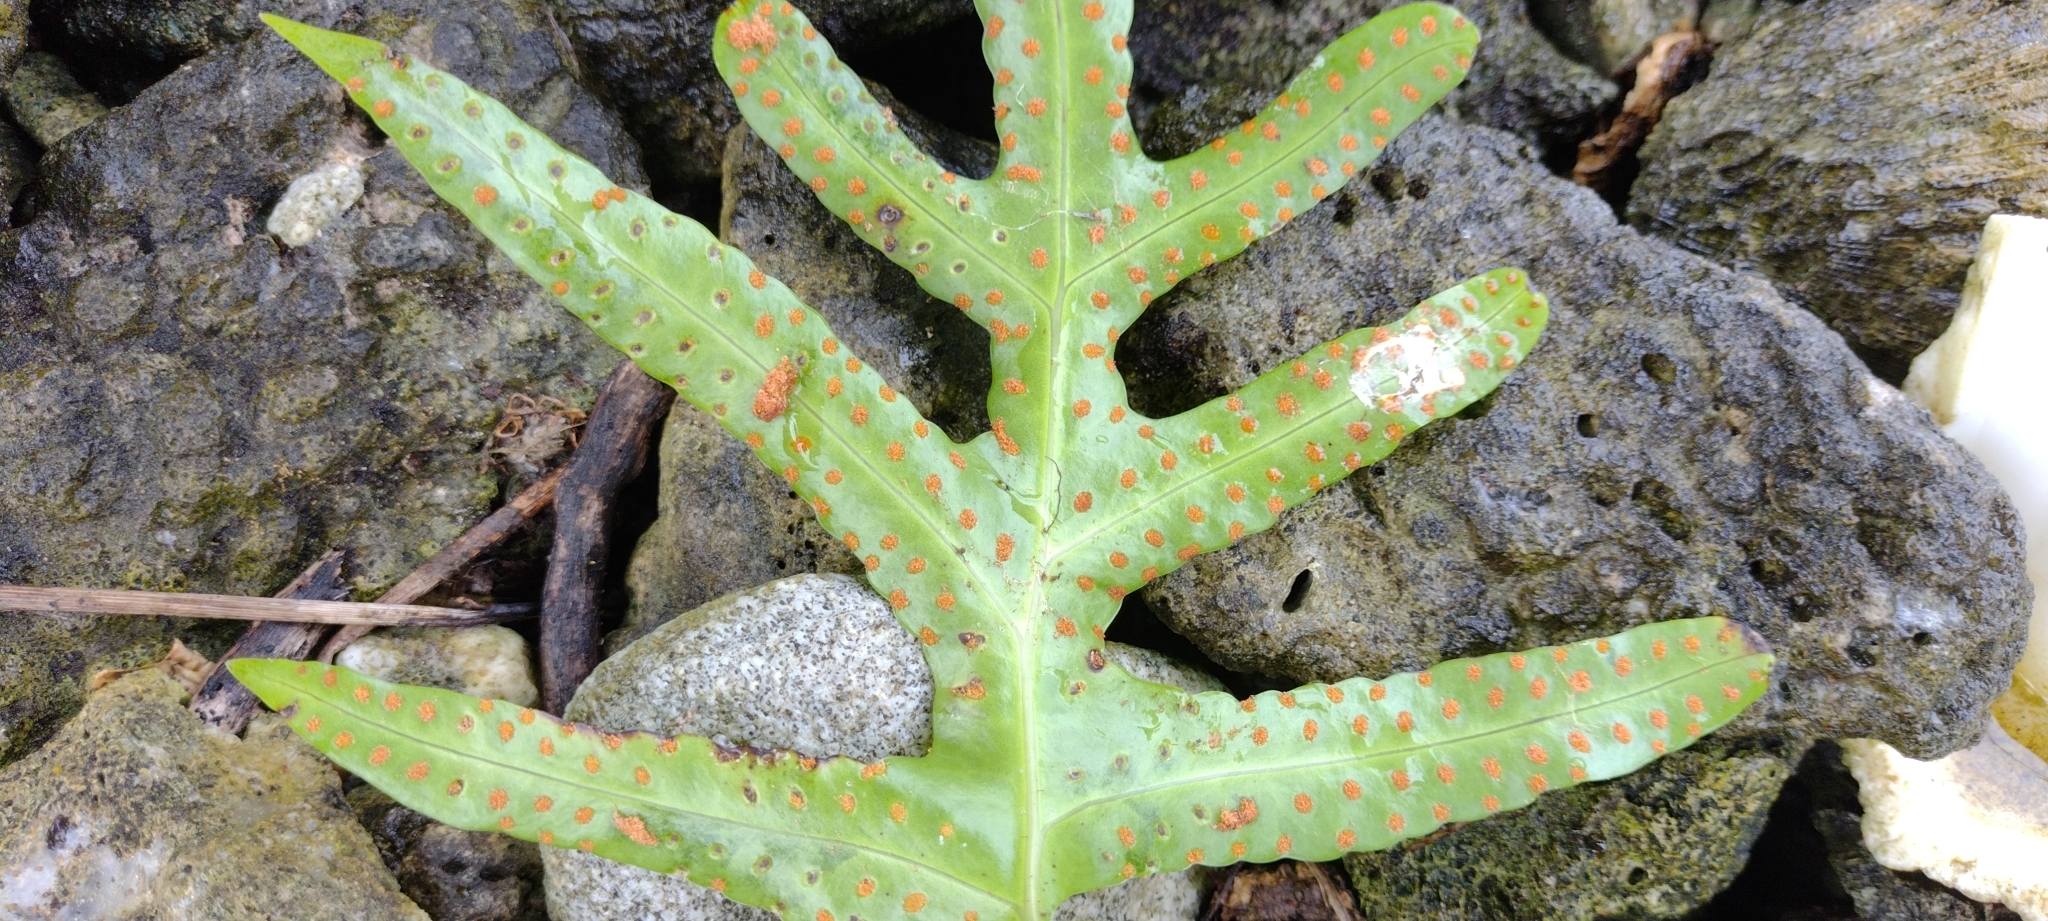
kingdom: Plantae
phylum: Tracheophyta
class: Polypodiopsida
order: Polypodiales
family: Polypodiaceae
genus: Microsorum
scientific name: Microsorum scolopendria
